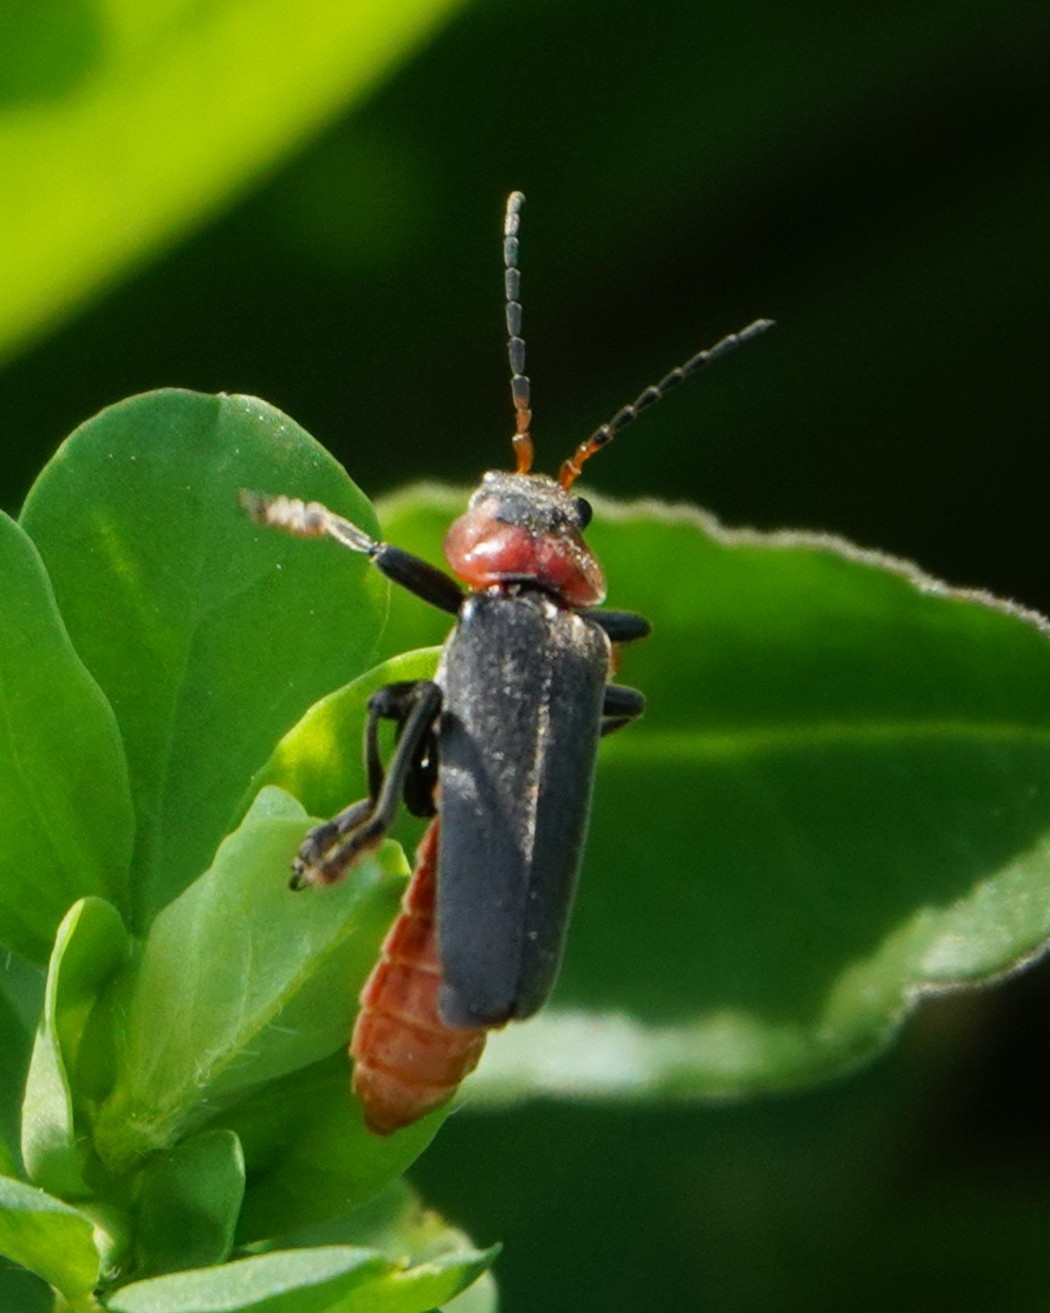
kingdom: Animalia
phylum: Arthropoda
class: Insecta
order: Coleoptera
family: Cantharidae
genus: Cantharis
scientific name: Cantharis fusca
